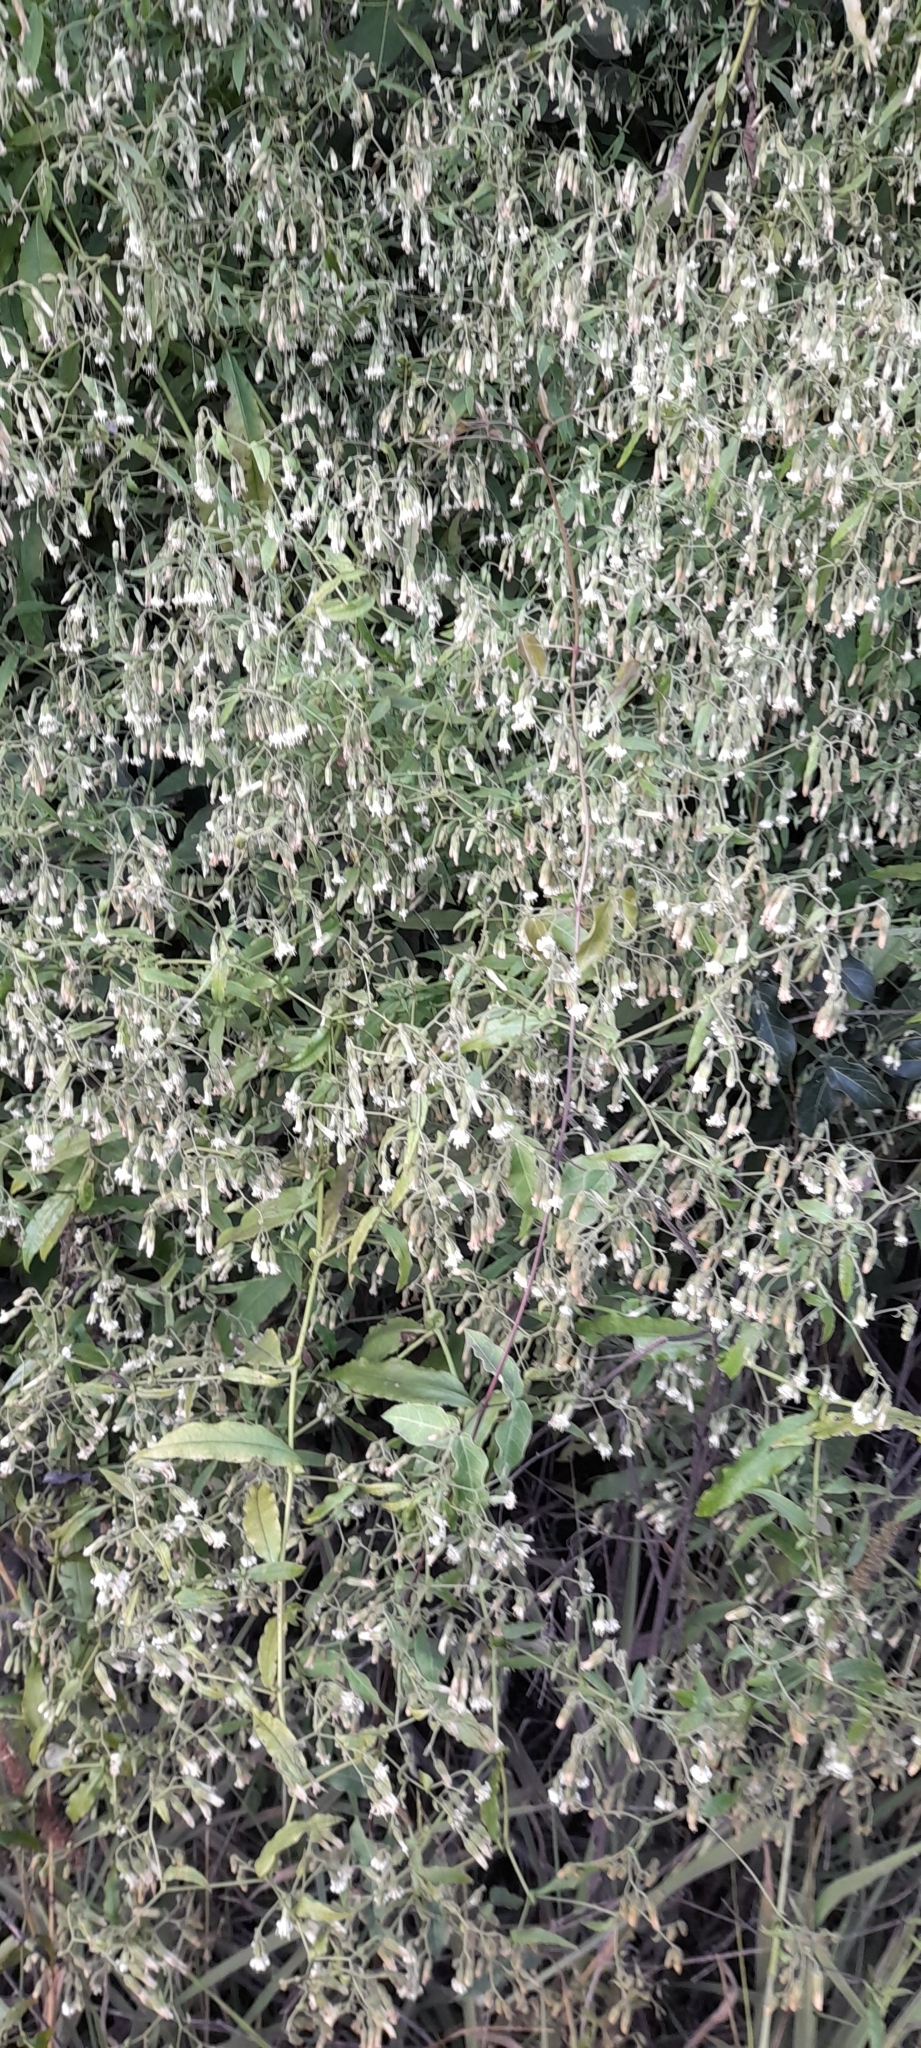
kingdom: Plantae
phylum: Tracheophyta
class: Magnoliopsida
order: Asterales
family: Asteraceae
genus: Trixis
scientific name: Trixis divaricata
